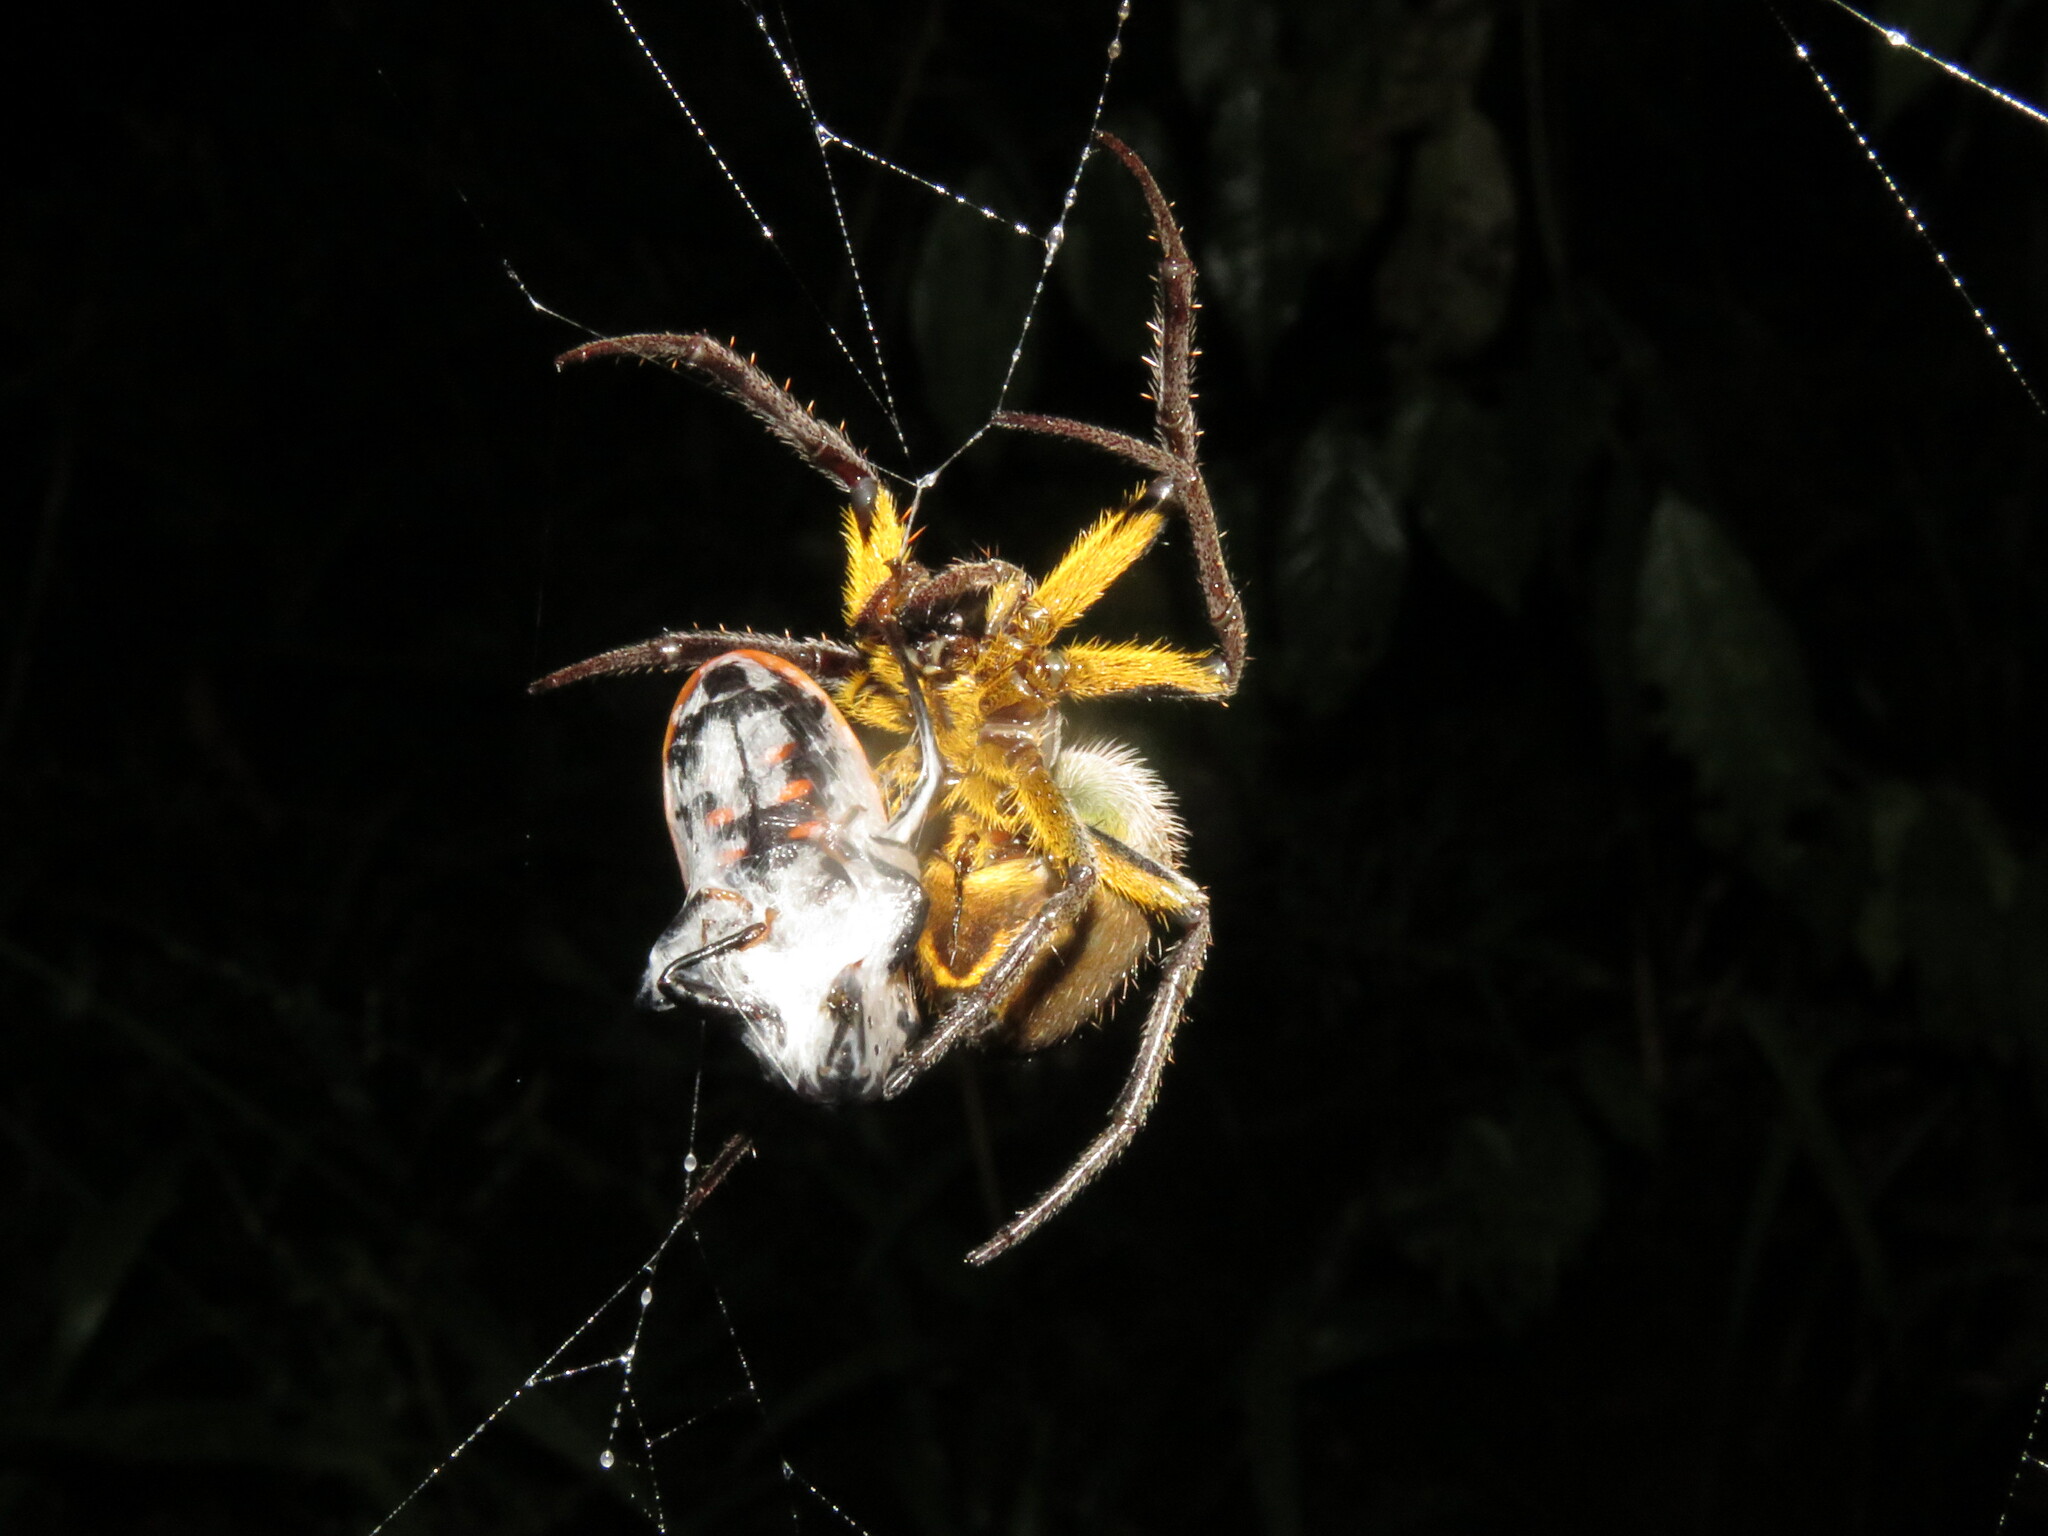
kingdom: Animalia
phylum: Arthropoda
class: Arachnida
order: Araneae
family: Araneidae
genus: Eriophora
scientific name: Eriophora fuliginea
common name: Orb weavers
